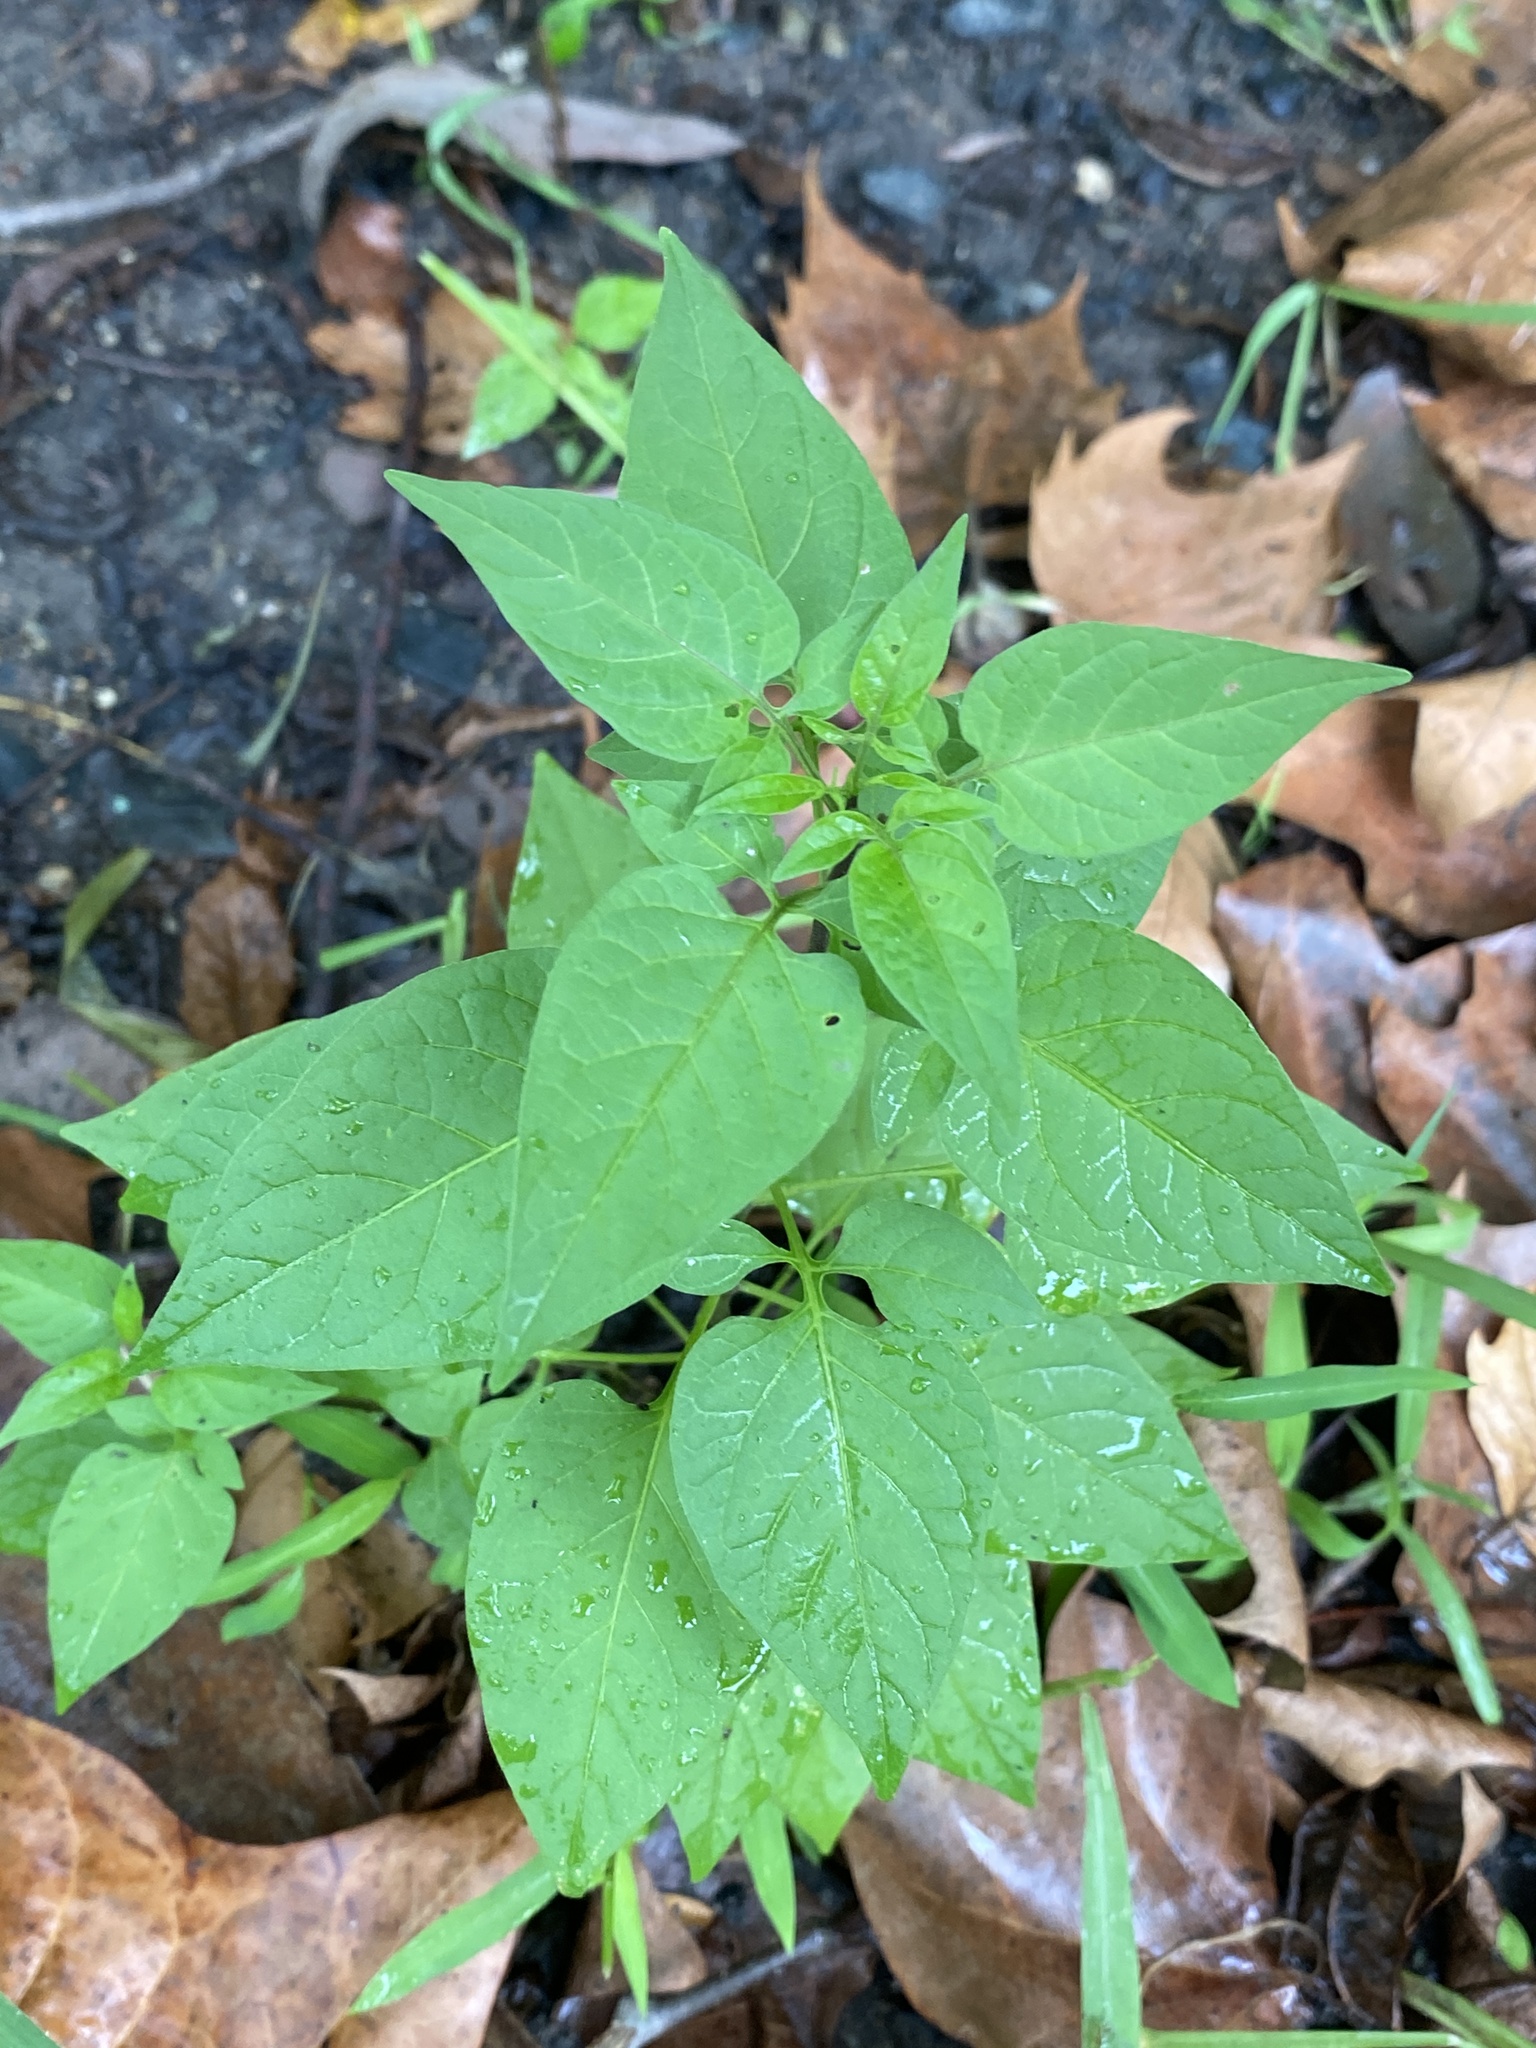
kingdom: Plantae
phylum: Tracheophyta
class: Magnoliopsida
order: Solanales
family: Solanaceae
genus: Solanum
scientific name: Solanum dulcamara
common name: Climbing nightshade
